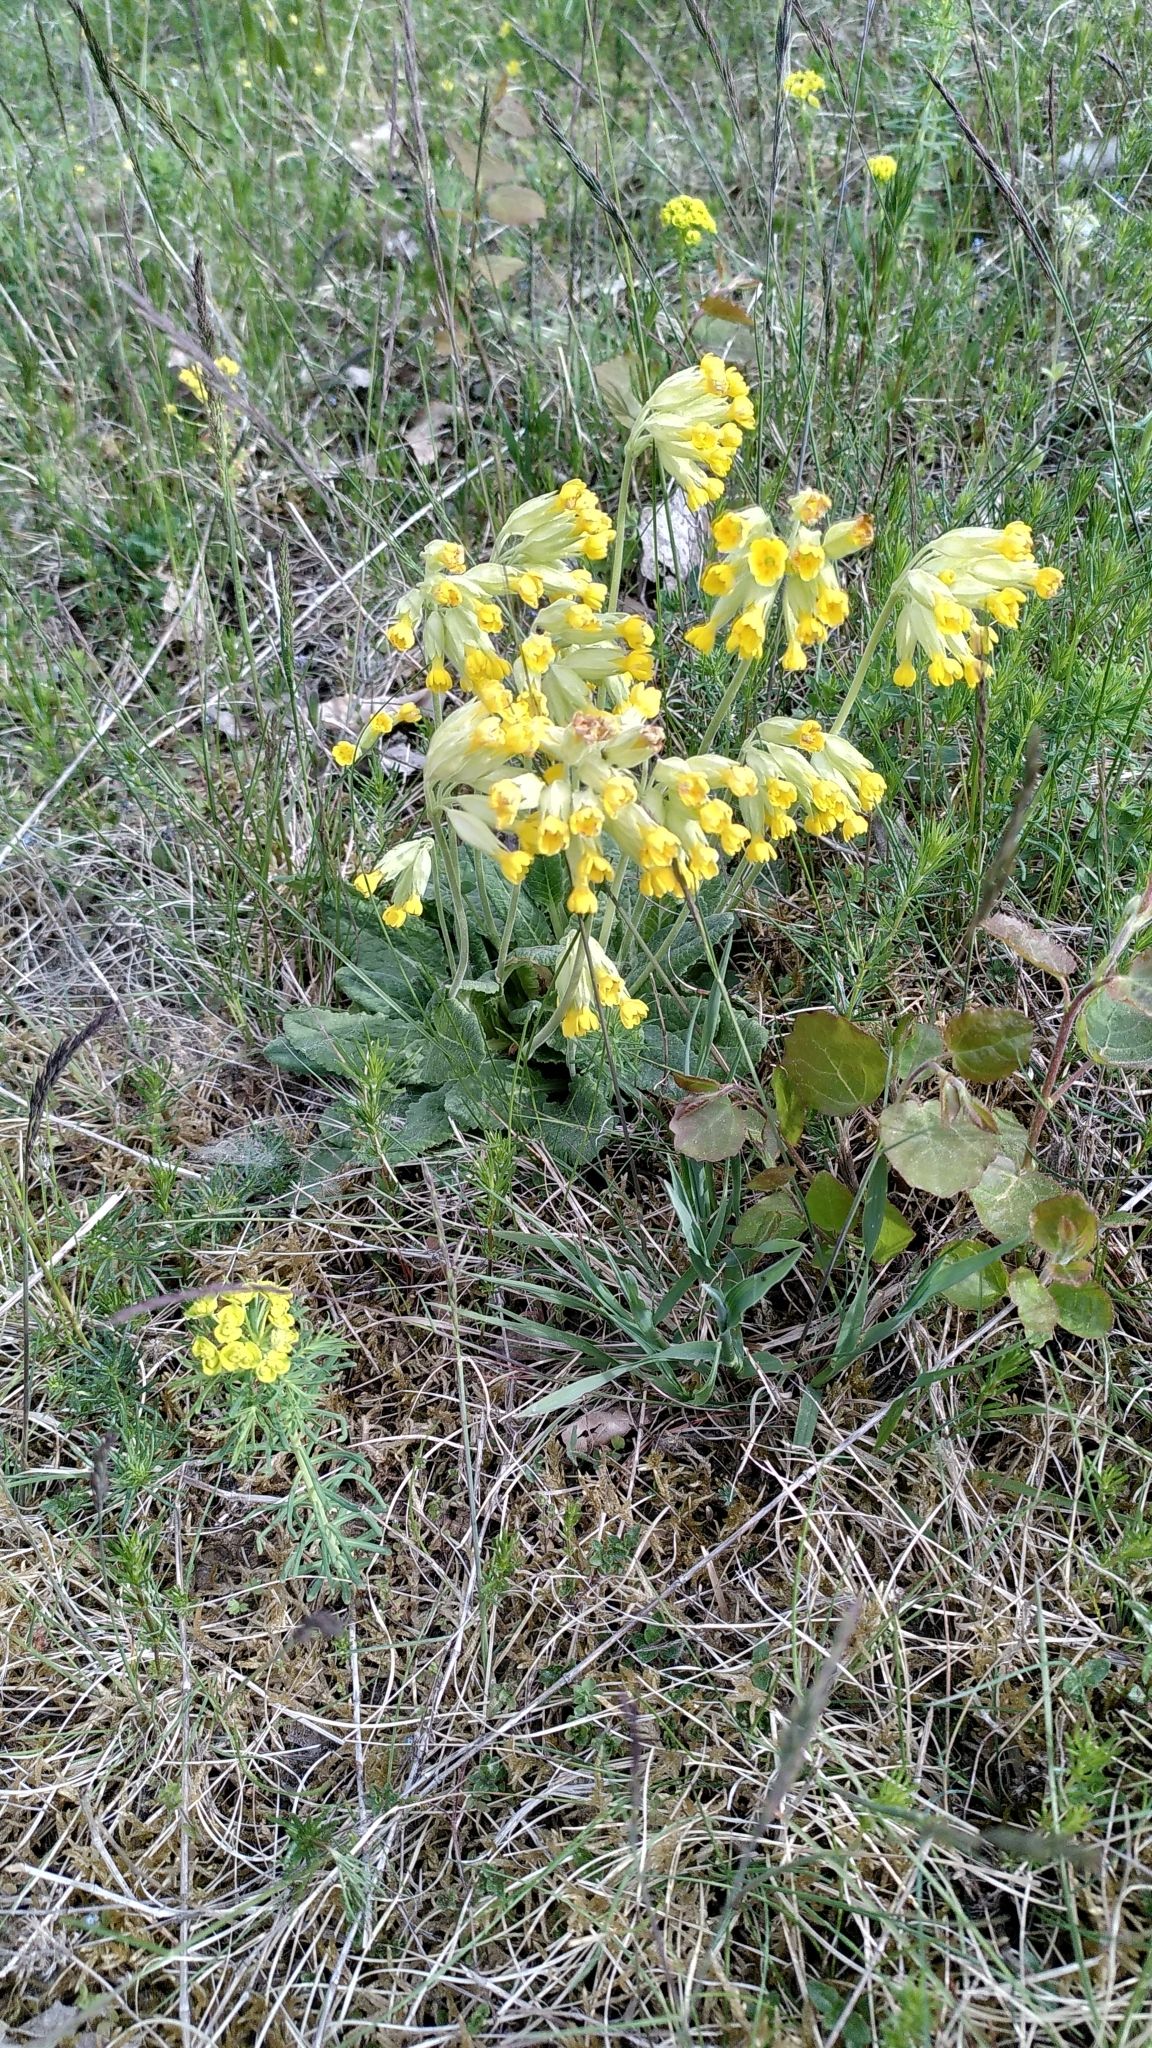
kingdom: Plantae
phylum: Tracheophyta
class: Magnoliopsida
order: Ericales
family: Primulaceae
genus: Primula
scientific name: Primula veris
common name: Cowslip
